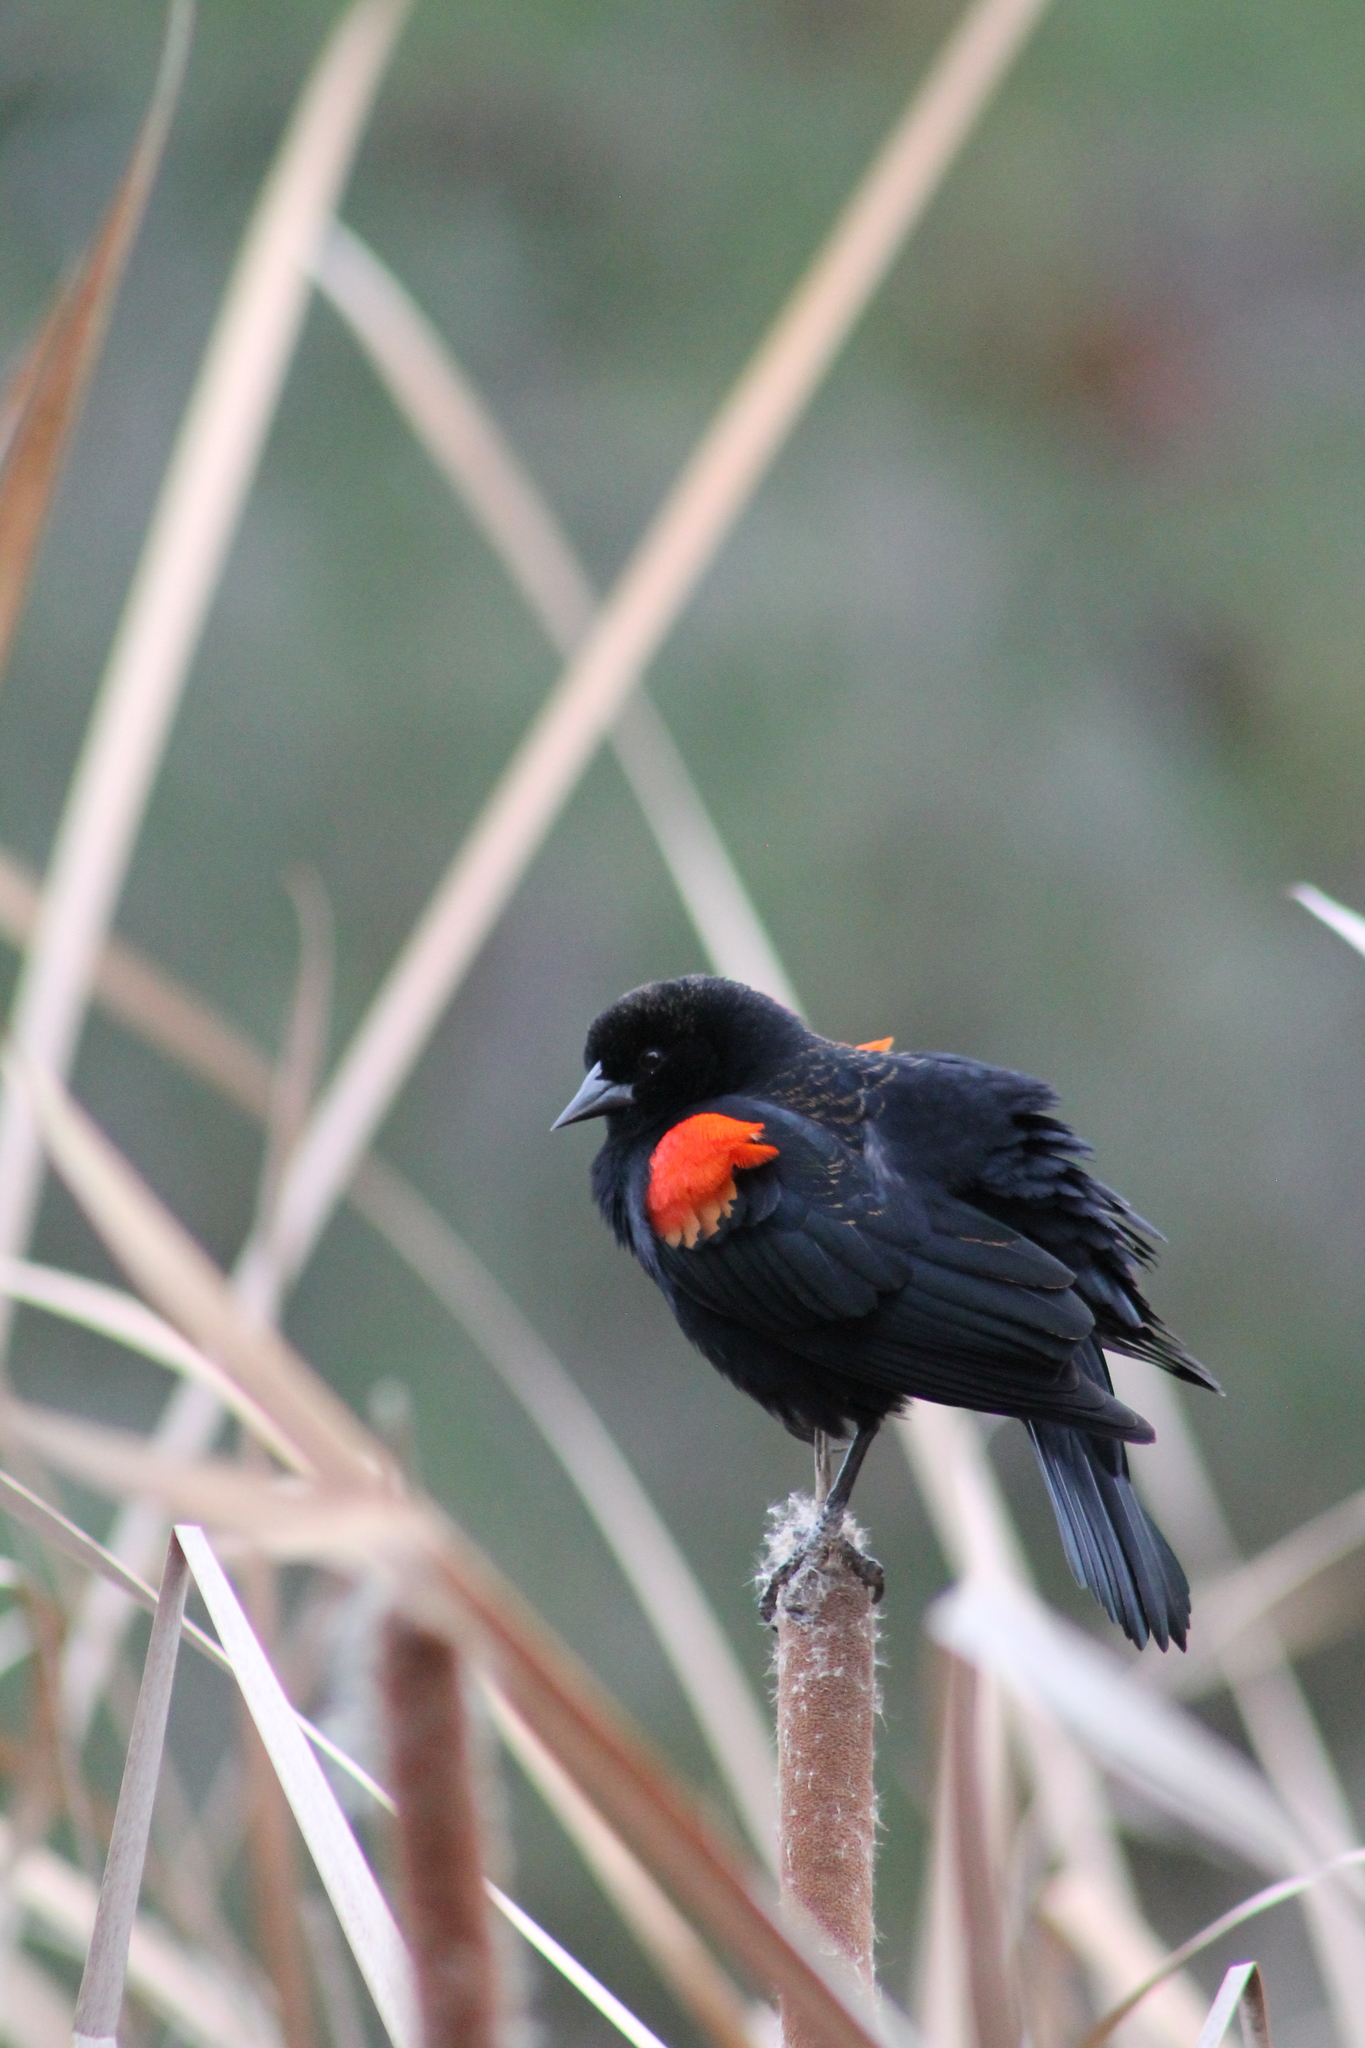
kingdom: Animalia
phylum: Chordata
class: Aves
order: Passeriformes
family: Icteridae
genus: Agelaius
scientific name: Agelaius phoeniceus
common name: Red-winged blackbird
